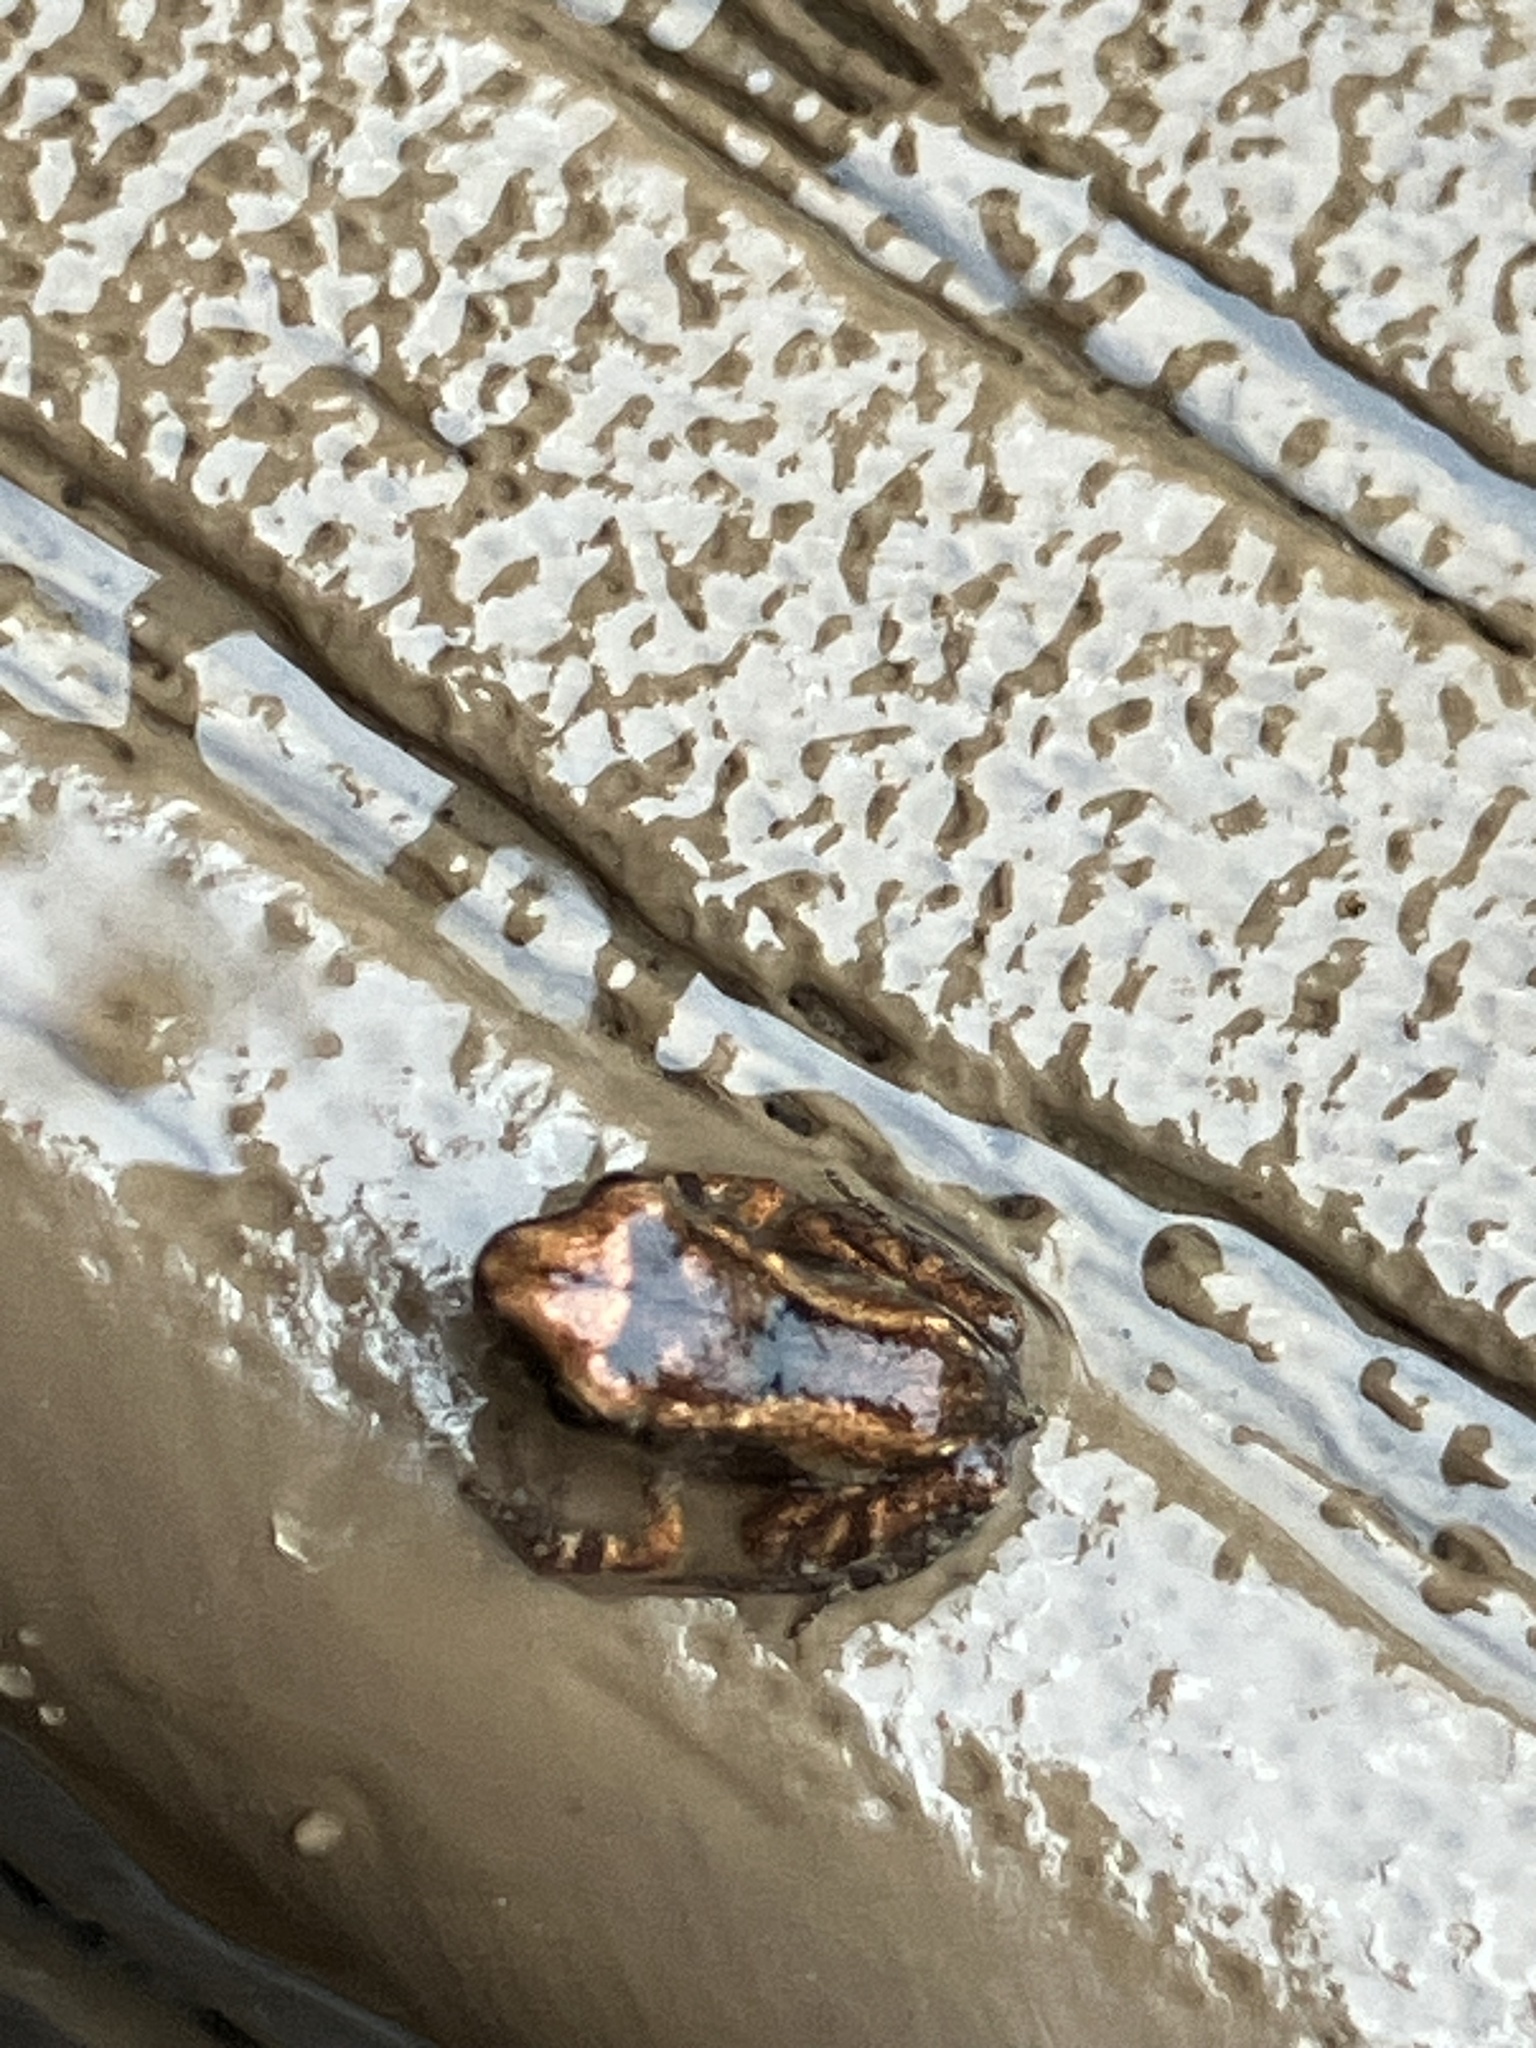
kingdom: Animalia
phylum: Chordata
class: Amphibia
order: Anura
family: Eleutherodactylidae
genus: Eleutherodactylus
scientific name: Eleutherodactylus planirostris
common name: Greenhouse frog
